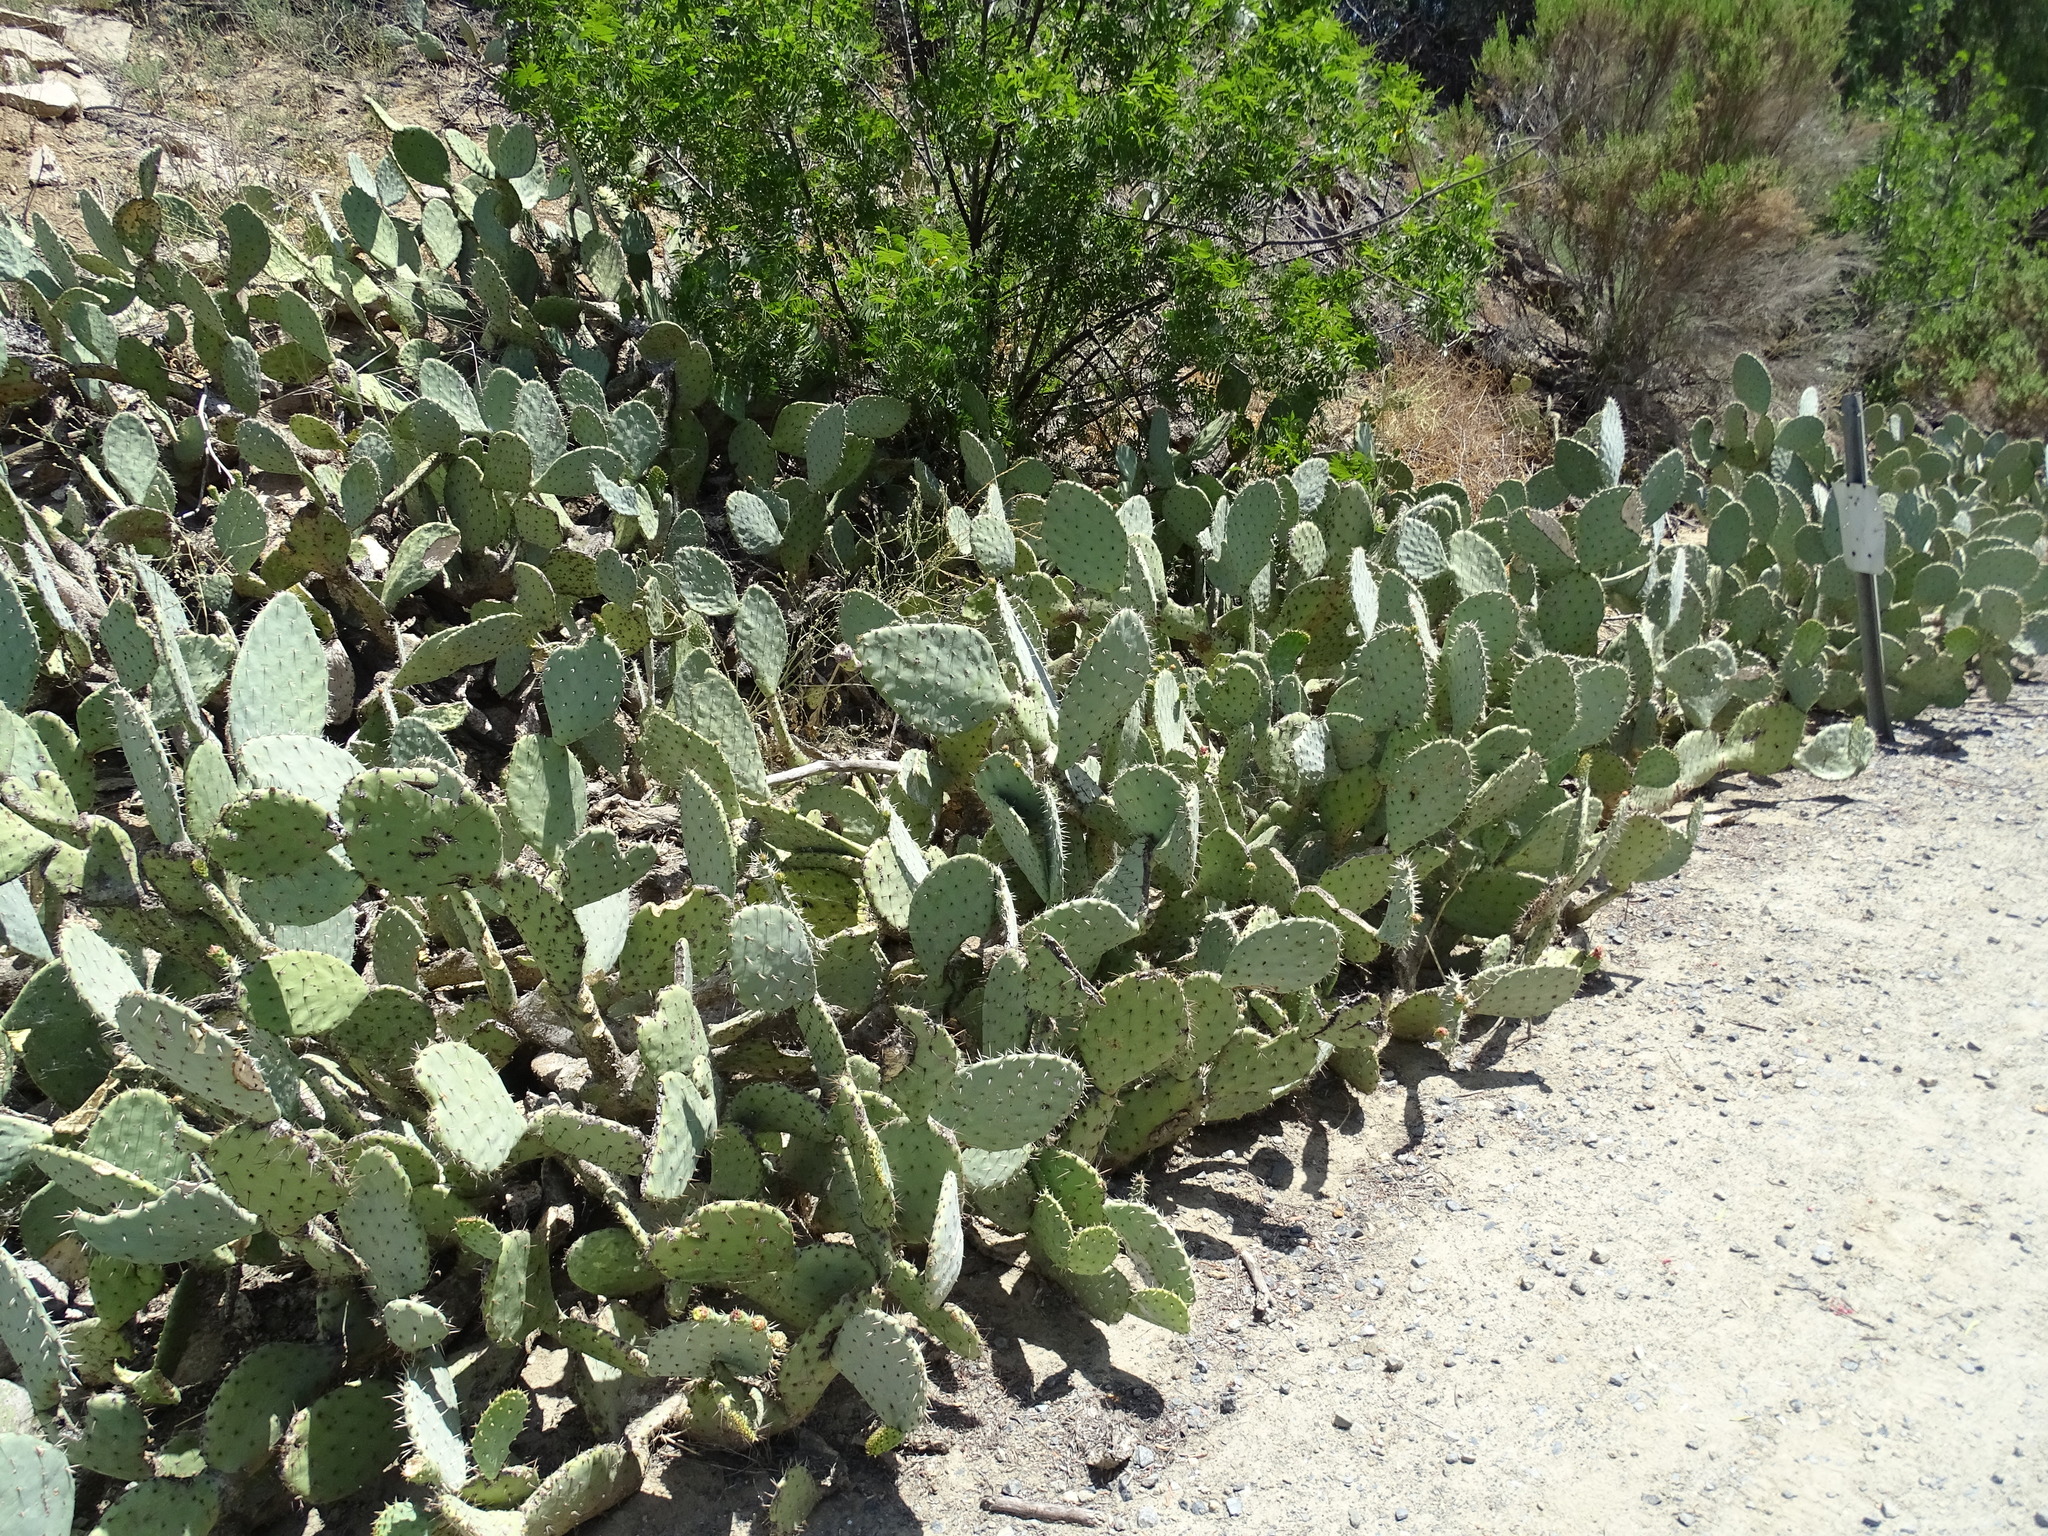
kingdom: Plantae
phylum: Tracheophyta
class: Magnoliopsida
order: Caryophyllales
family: Cactaceae
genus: Opuntia
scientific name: Opuntia
